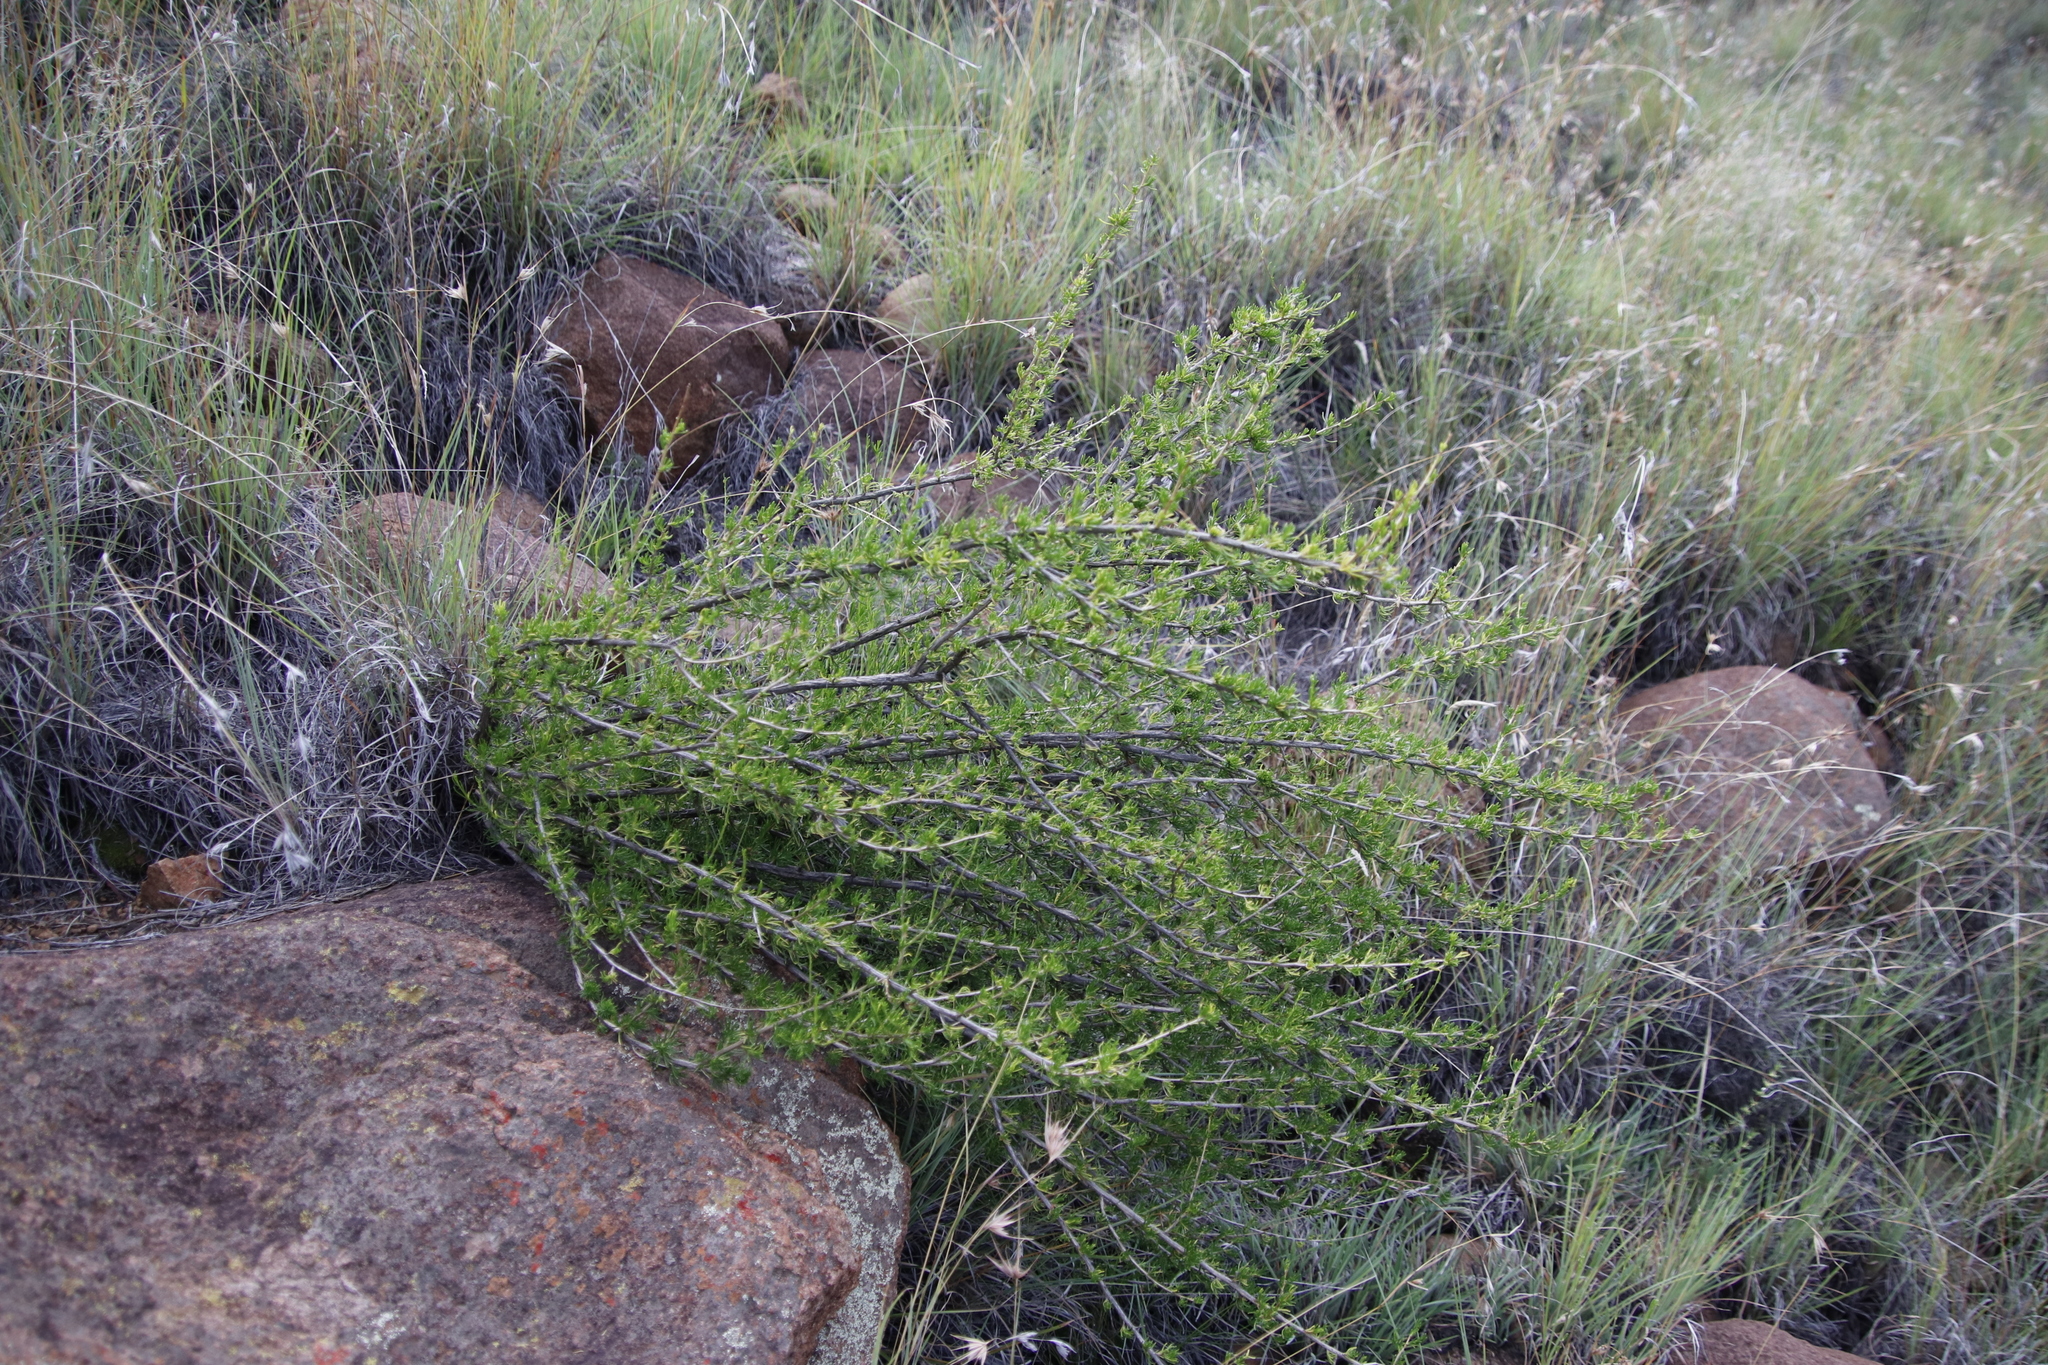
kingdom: Plantae
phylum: Tracheophyta
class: Magnoliopsida
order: Asterales
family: Asteraceae
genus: Felicia
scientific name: Felicia filifolia
